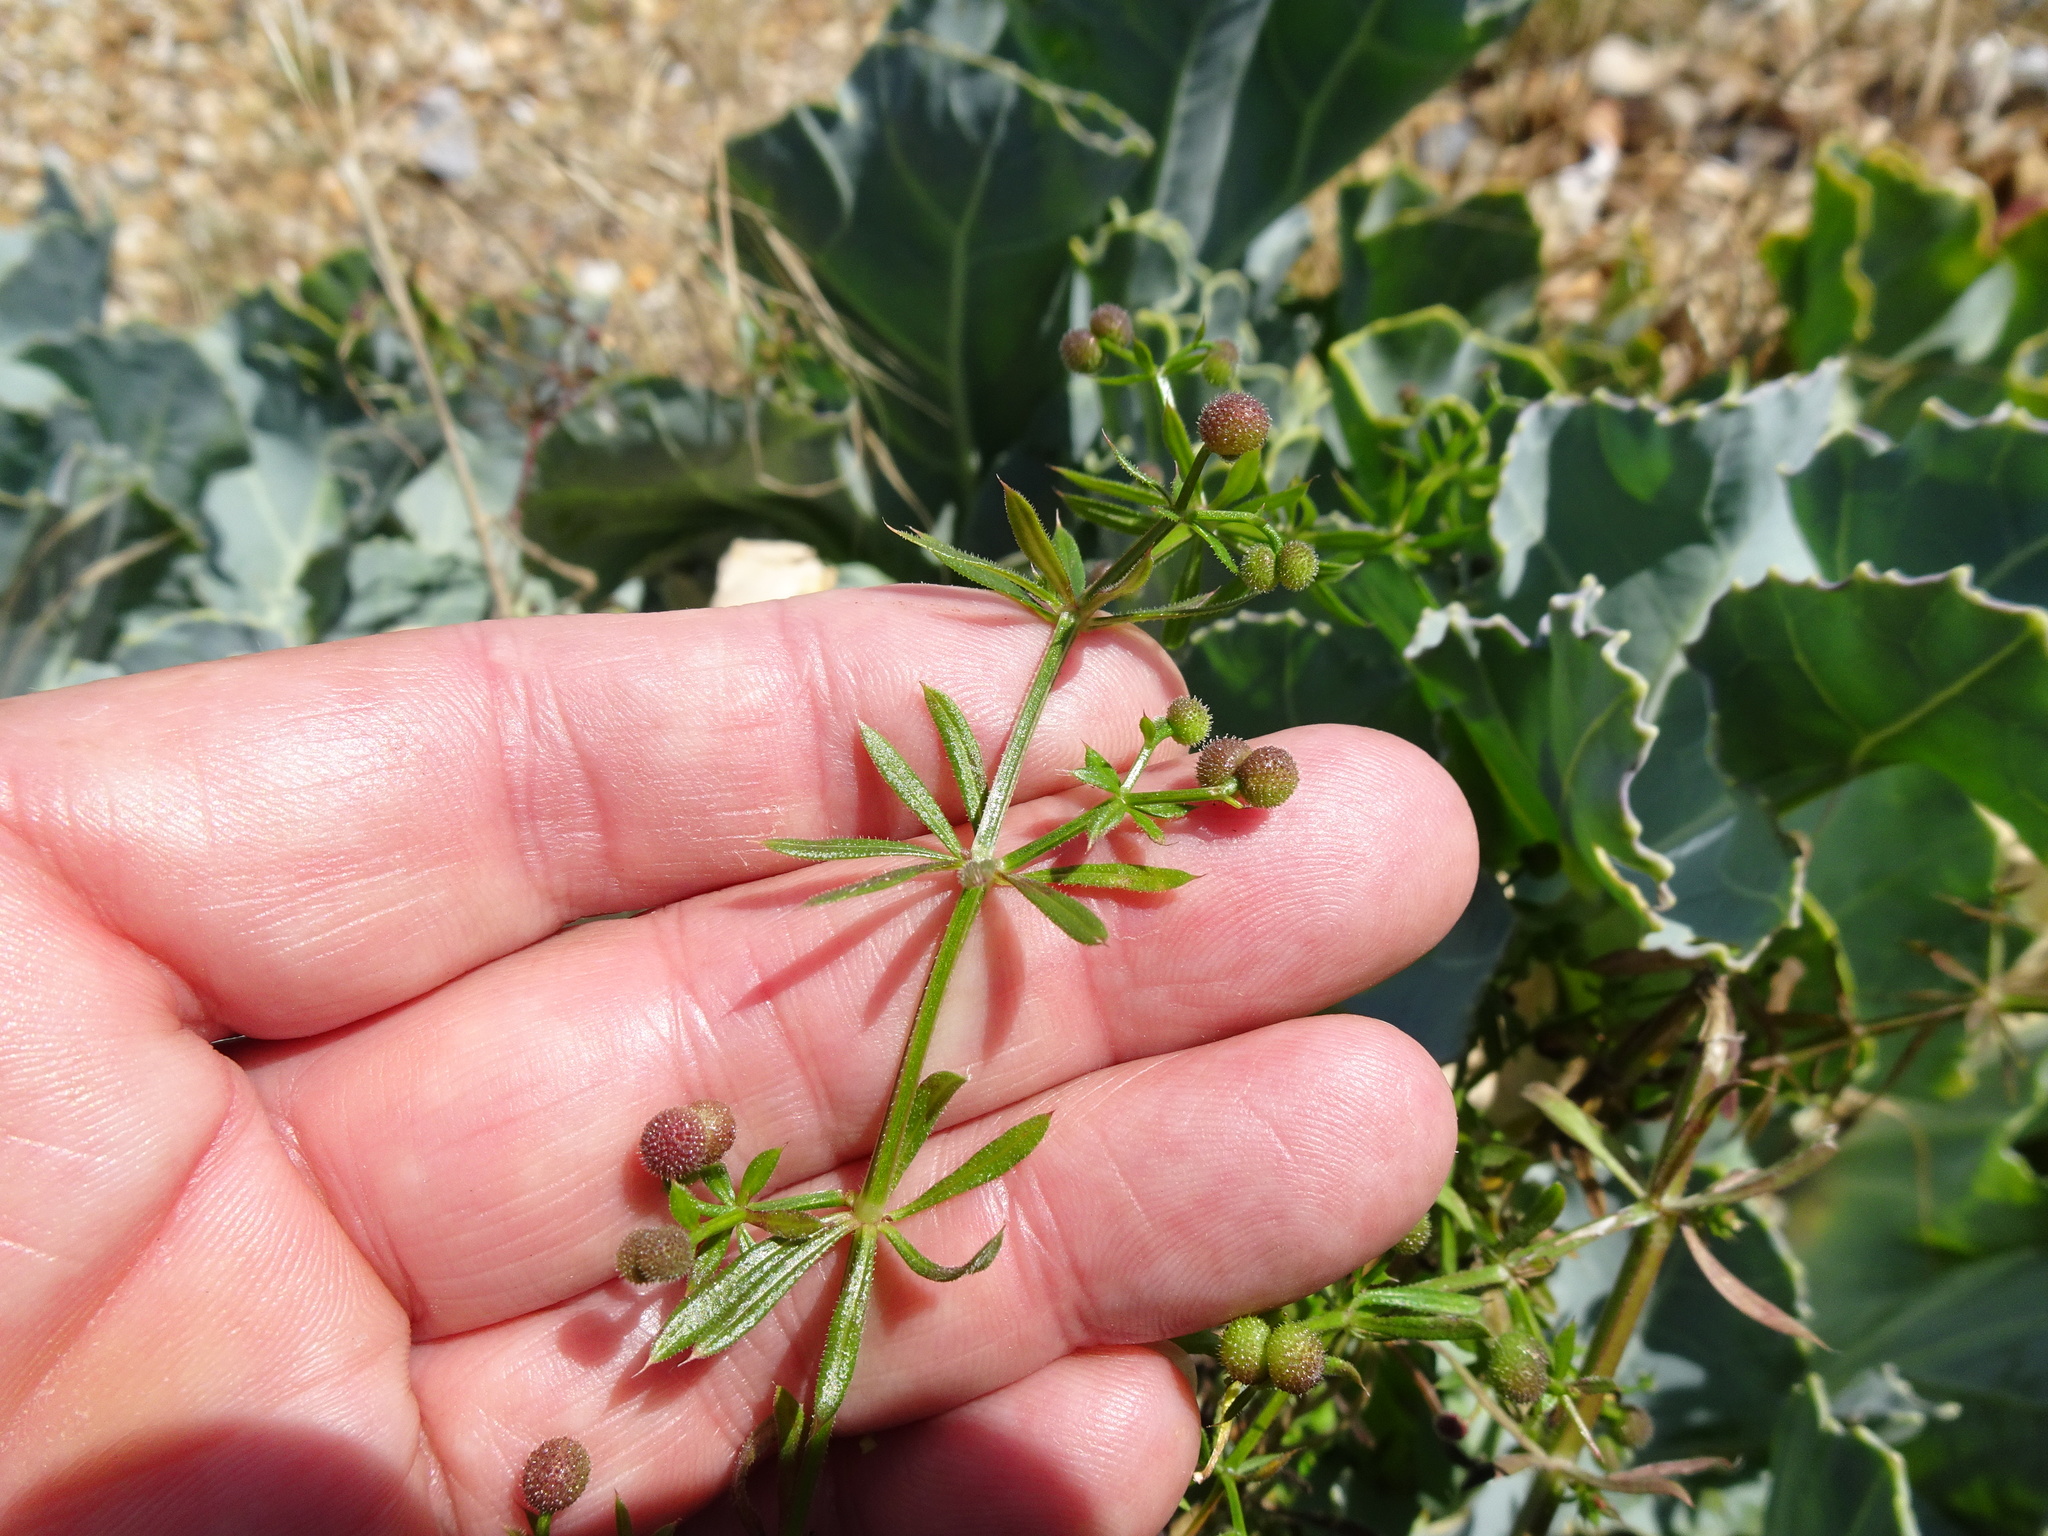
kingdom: Plantae
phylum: Tracheophyta
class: Magnoliopsida
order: Gentianales
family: Rubiaceae
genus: Galium
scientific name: Galium aparine
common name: Cleavers
